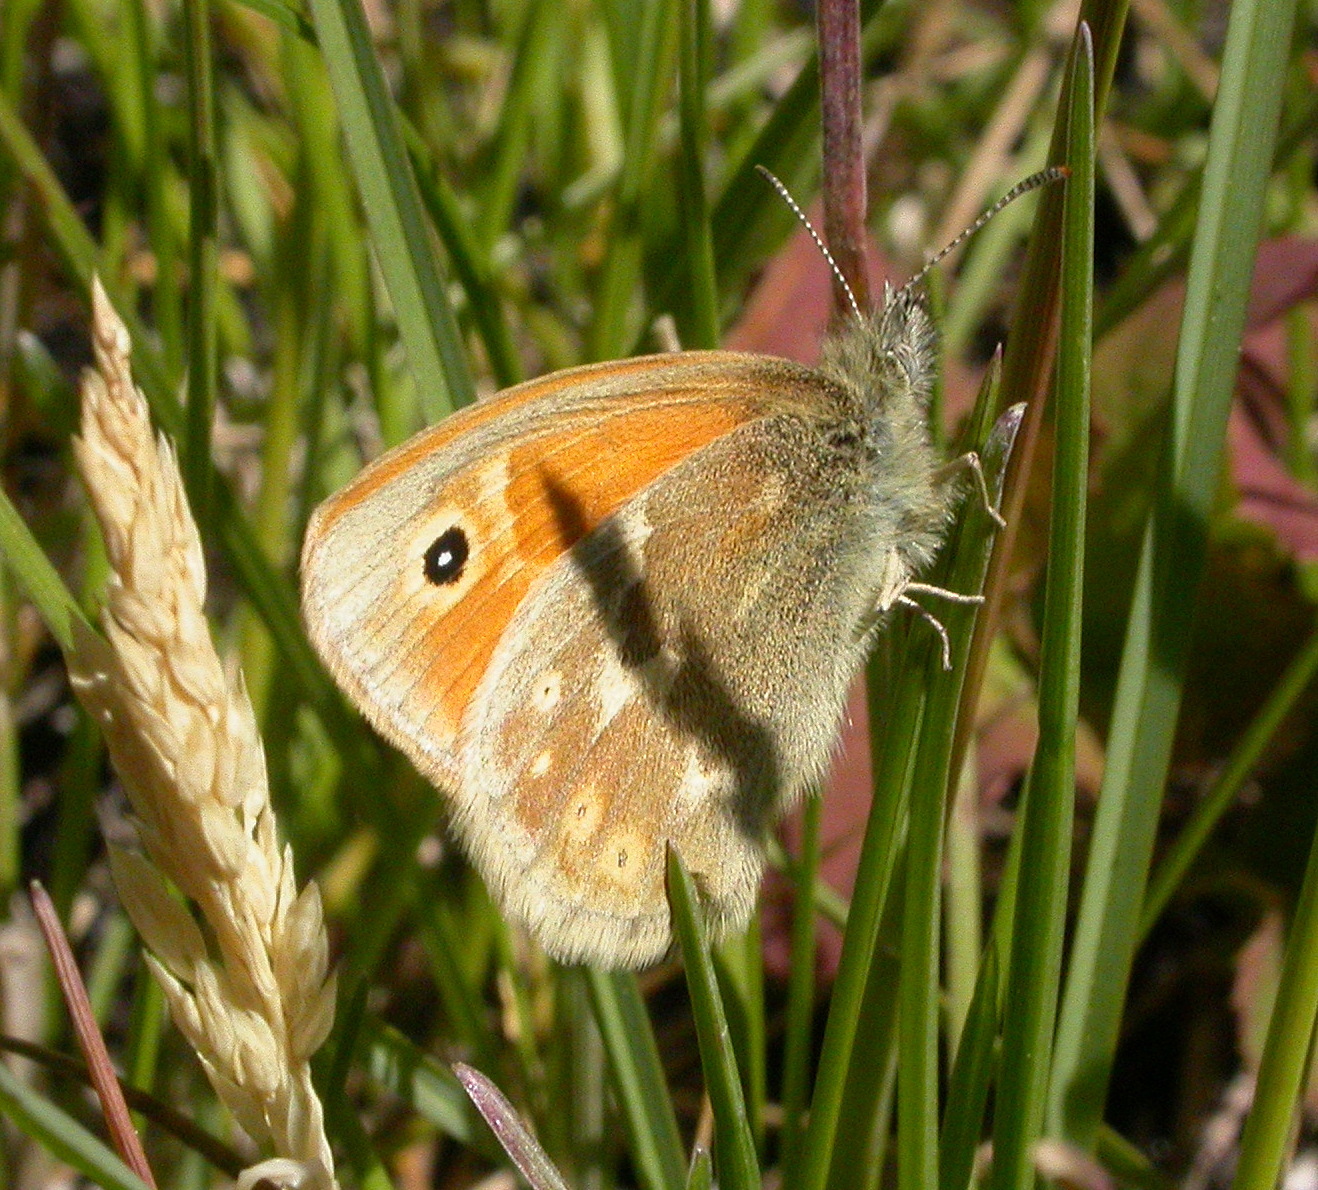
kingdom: Animalia
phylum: Arthropoda
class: Insecta
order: Lepidoptera
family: Nymphalidae
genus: Coenonympha
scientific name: Coenonympha california
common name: Common ringlet
